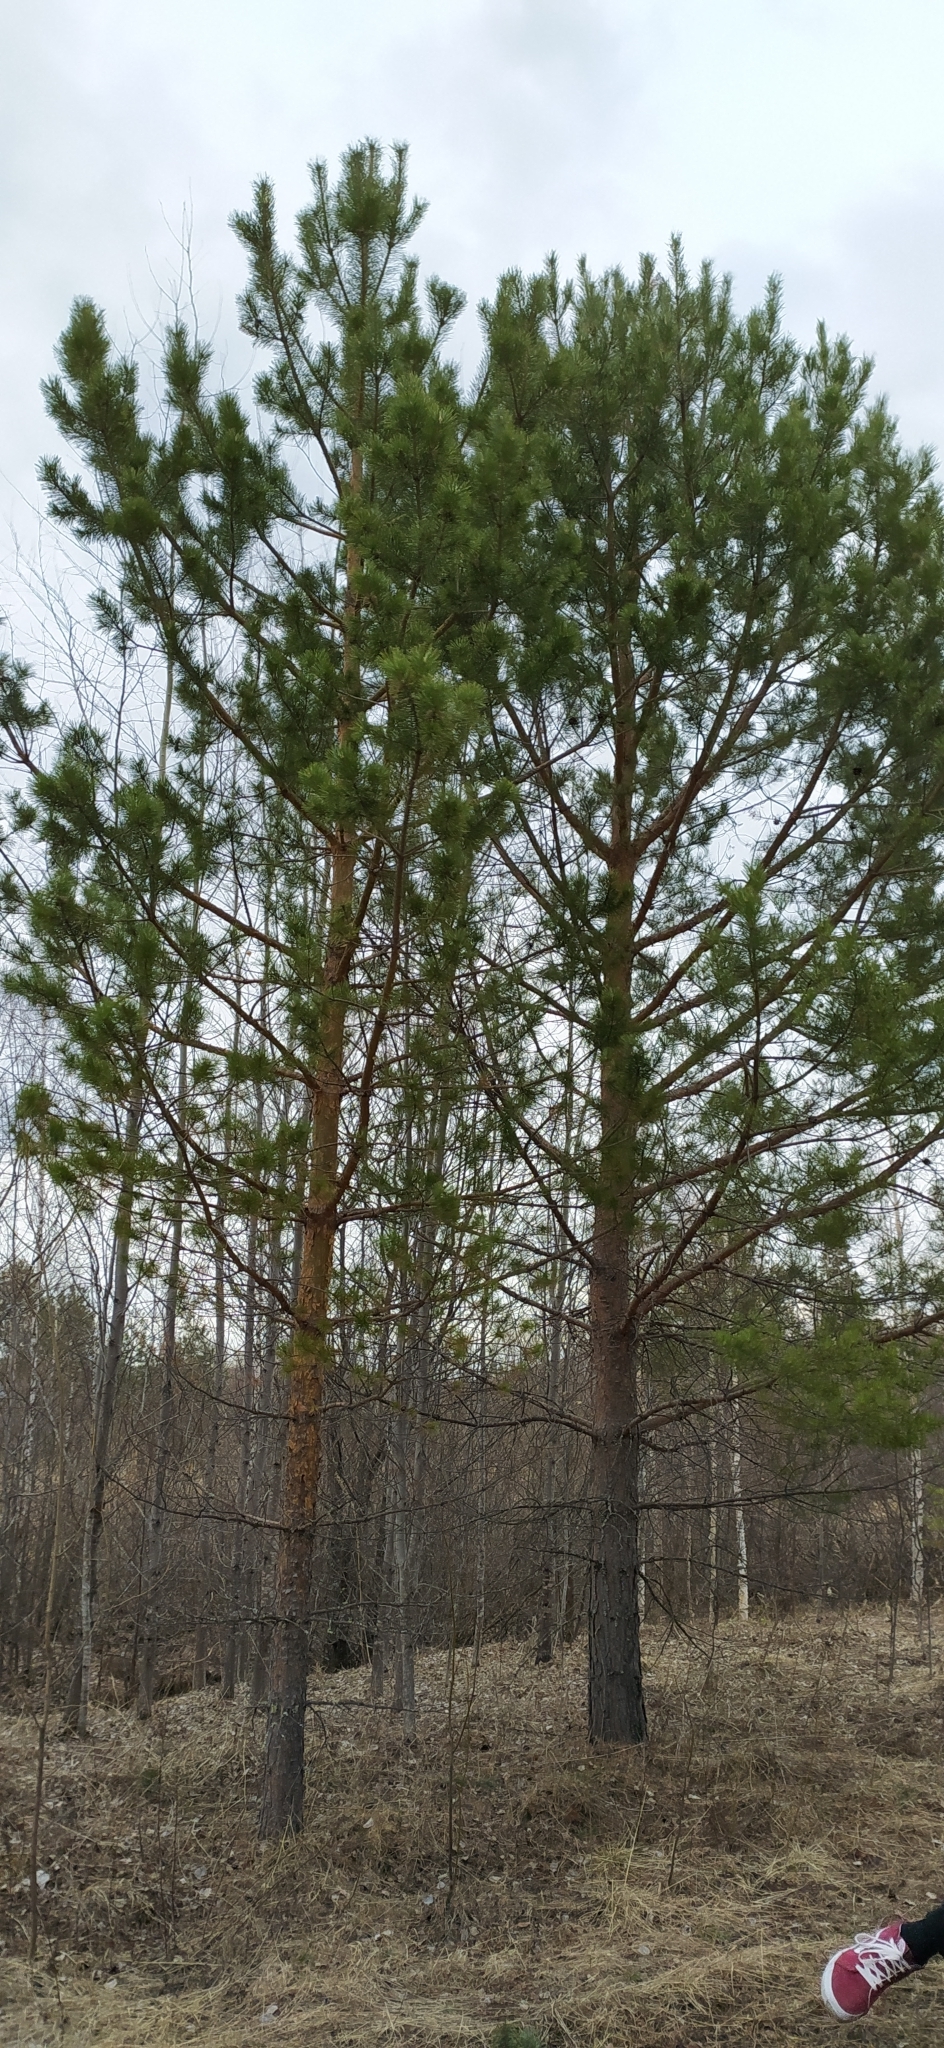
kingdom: Plantae
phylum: Tracheophyta
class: Pinopsida
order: Pinales
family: Pinaceae
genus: Pinus
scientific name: Pinus sylvestris
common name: Scots pine
